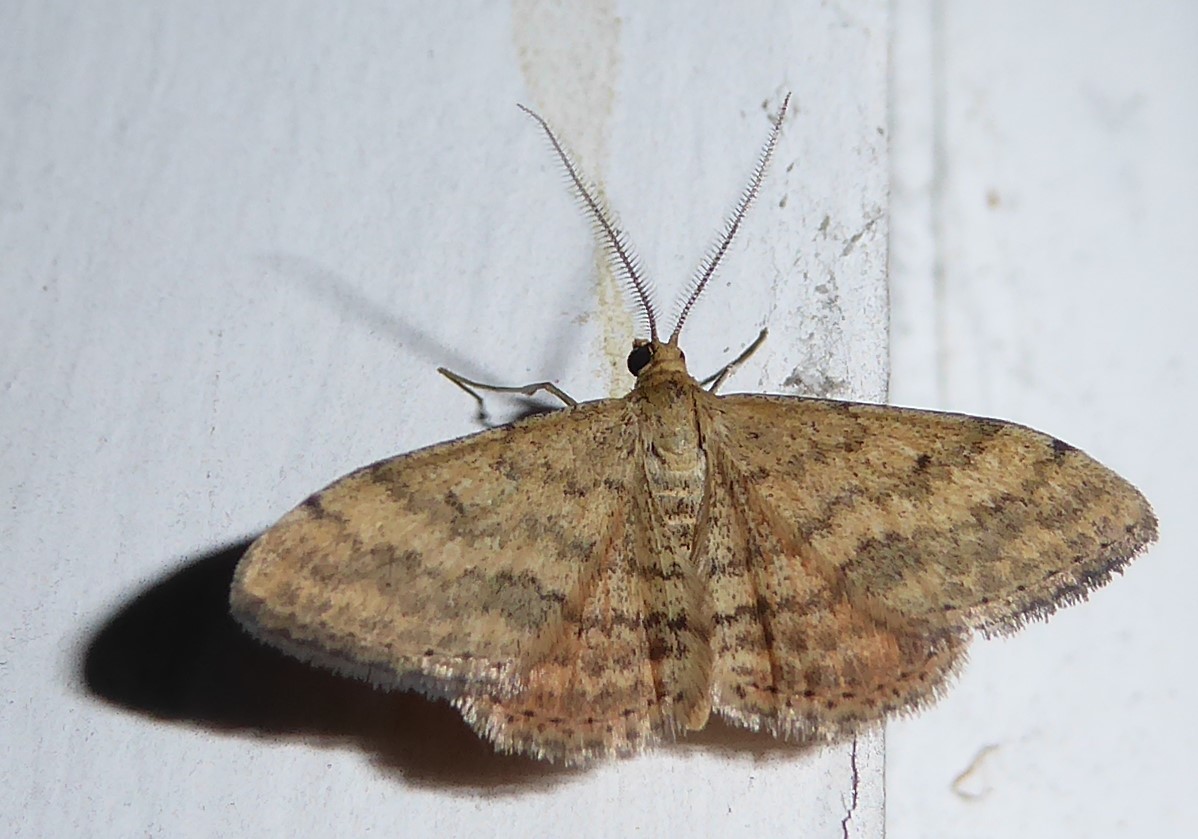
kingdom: Animalia
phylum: Arthropoda
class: Insecta
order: Lepidoptera
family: Geometridae
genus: Scopula
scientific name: Scopula rubraria
